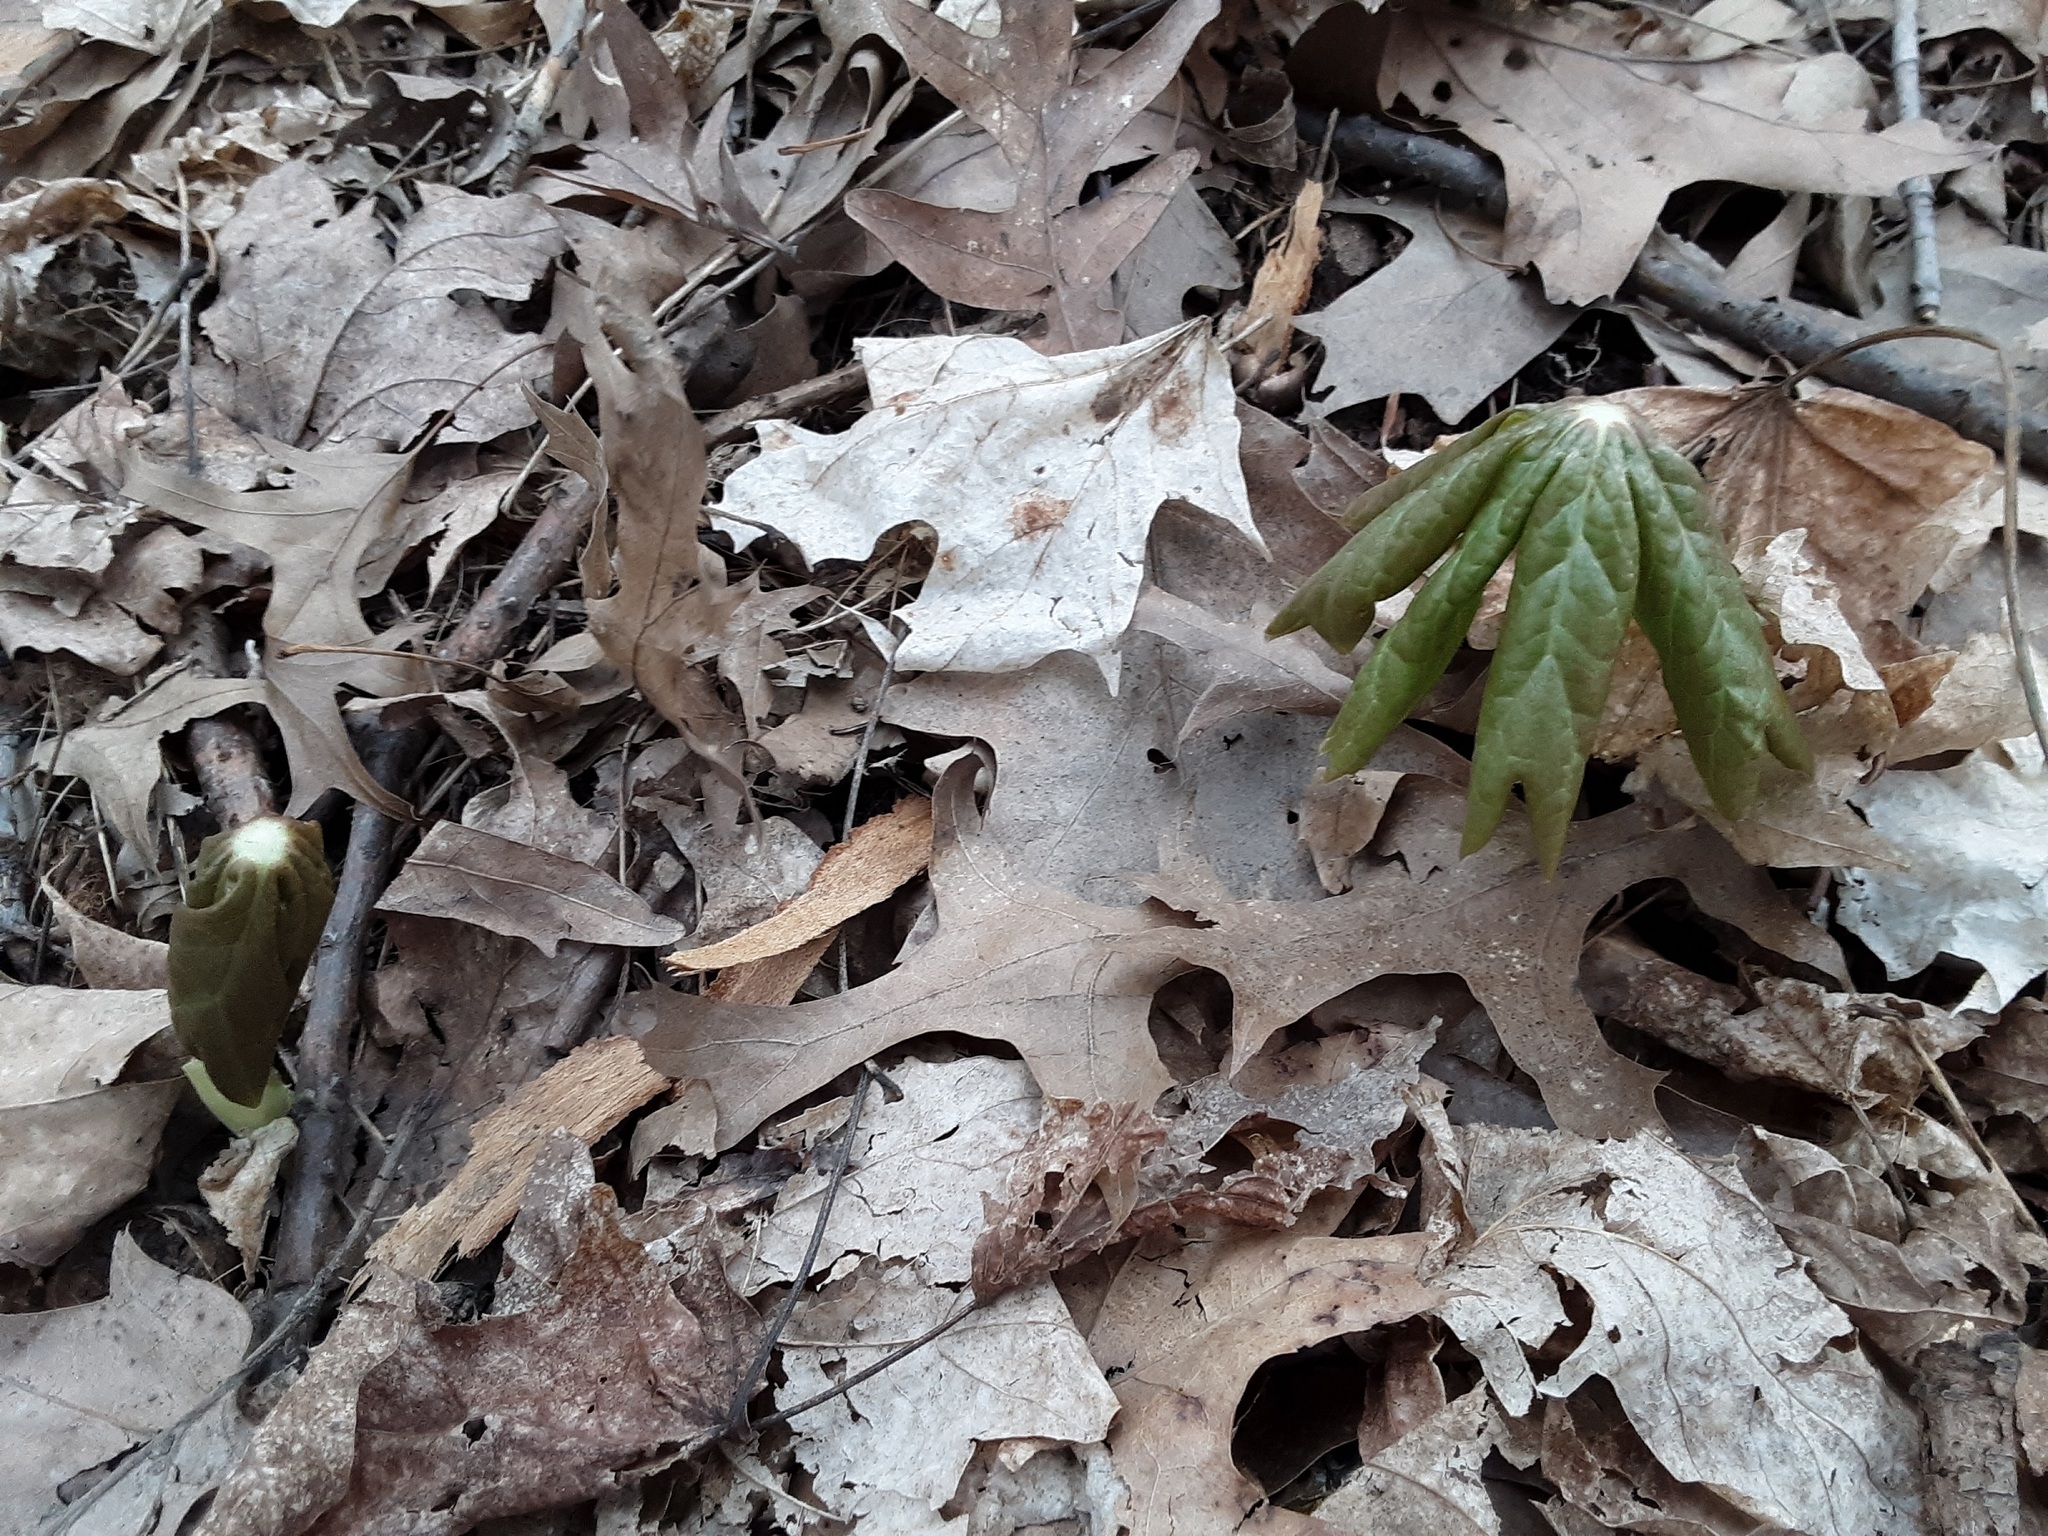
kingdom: Plantae
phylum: Tracheophyta
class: Magnoliopsida
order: Ranunculales
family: Berberidaceae
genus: Podophyllum
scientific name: Podophyllum peltatum
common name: Wild mandrake
